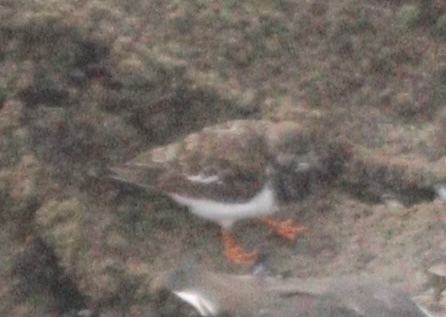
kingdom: Animalia
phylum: Chordata
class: Aves
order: Charadriiformes
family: Scolopacidae
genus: Arenaria
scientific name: Arenaria interpres
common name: Ruddy turnstone
